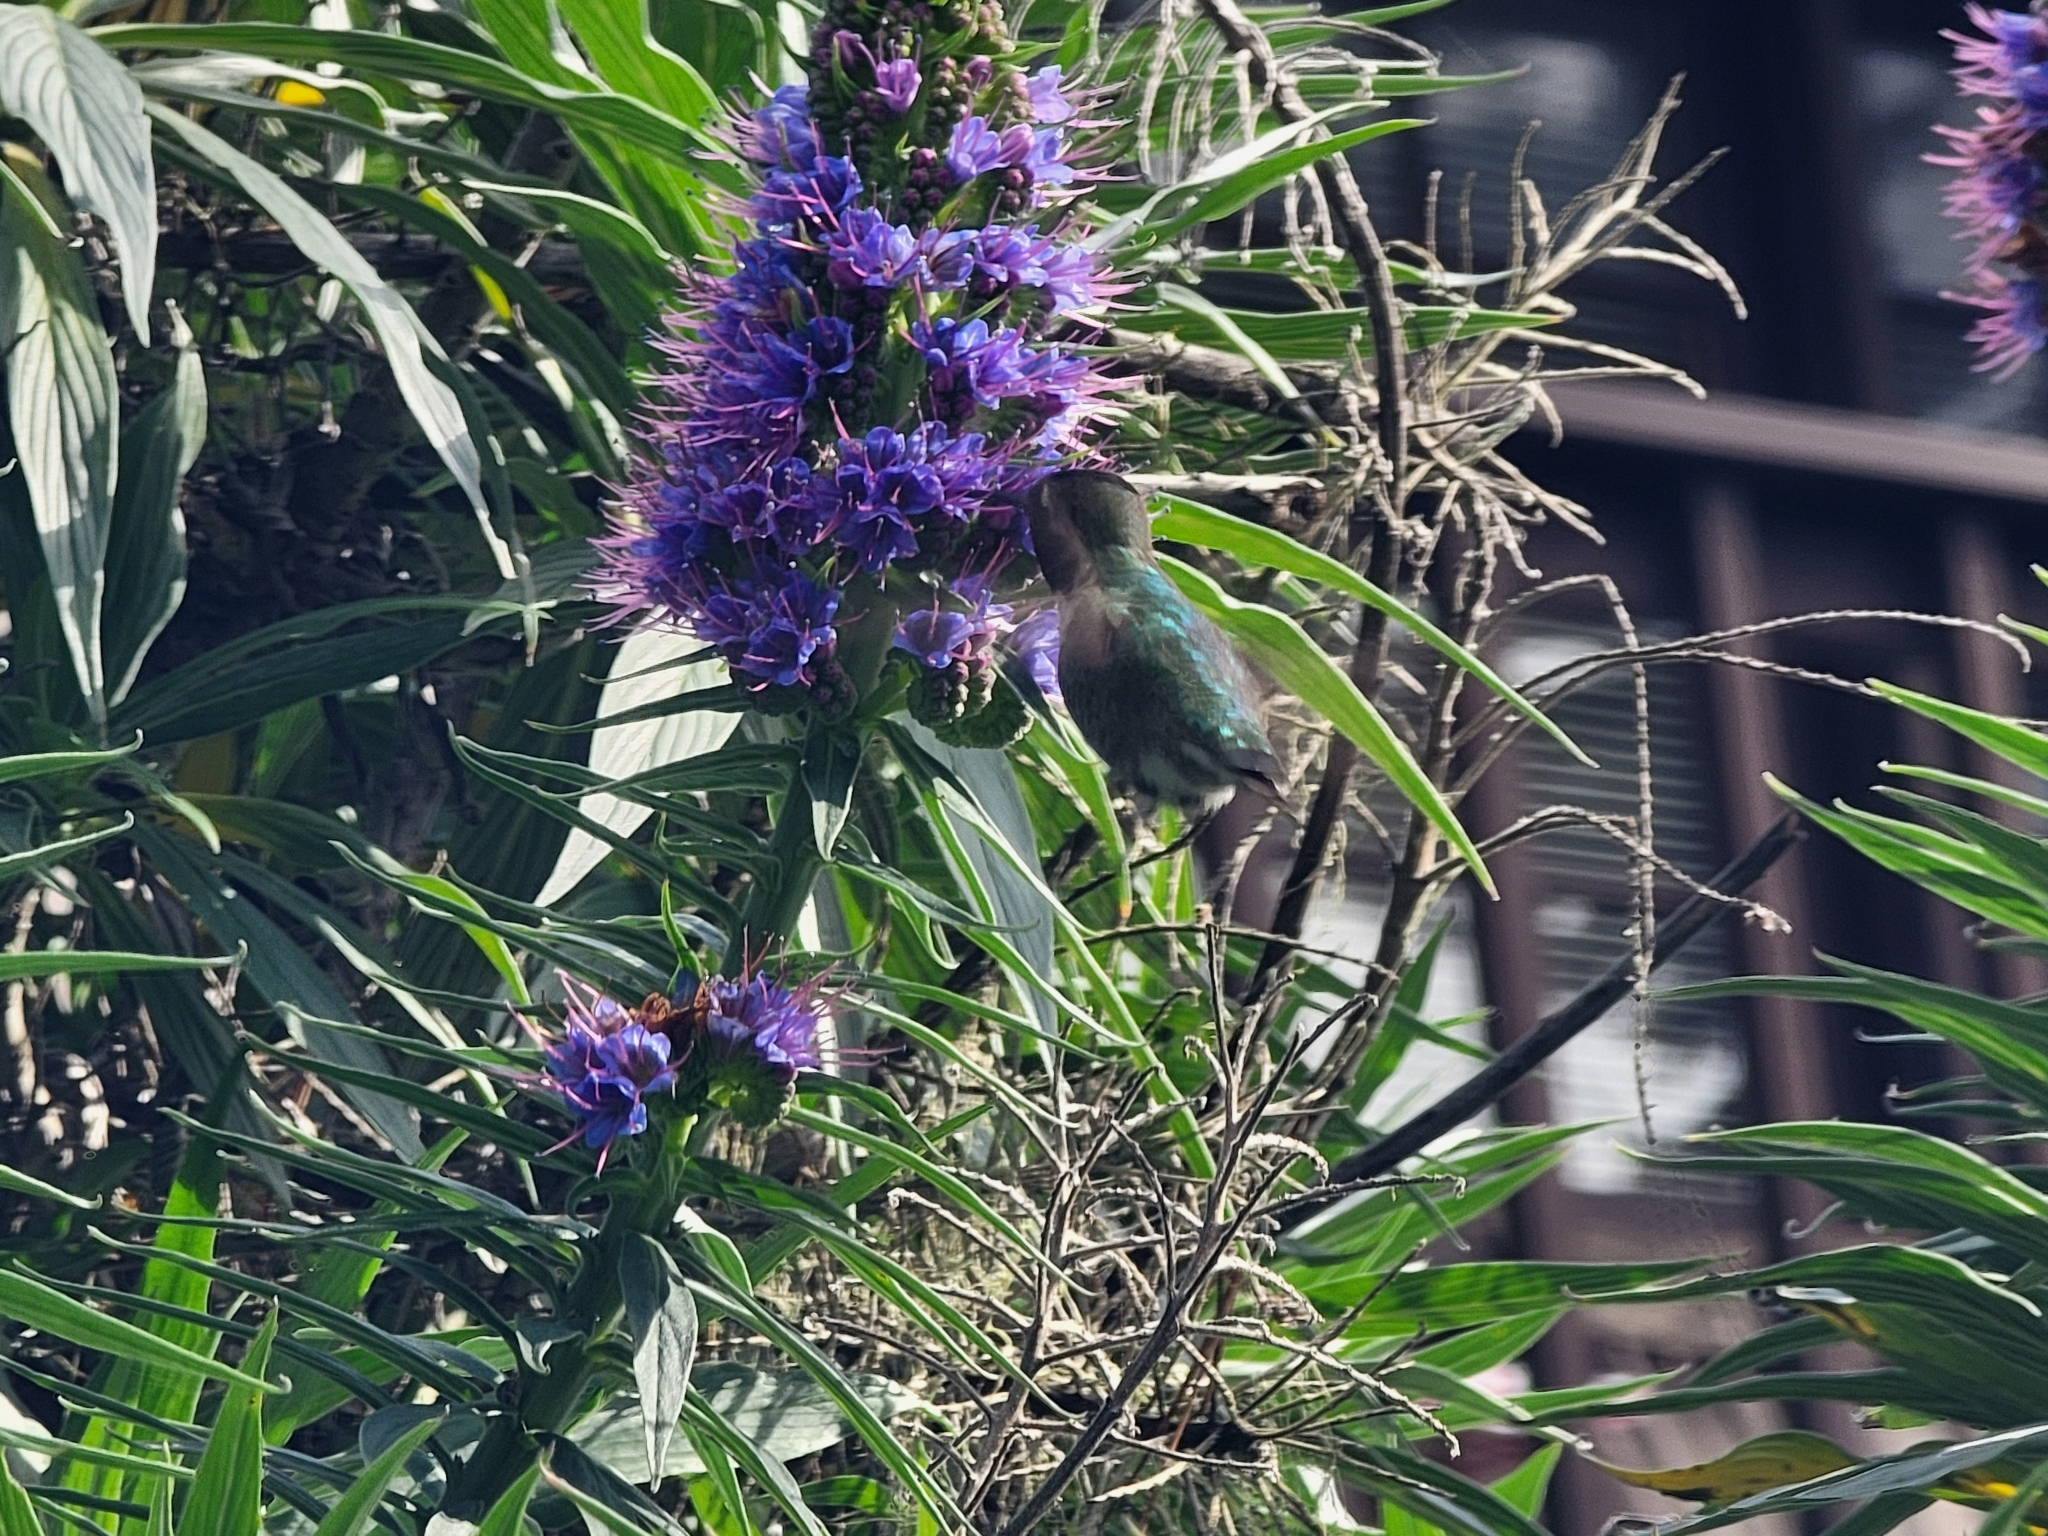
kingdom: Animalia
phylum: Chordata
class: Aves
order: Apodiformes
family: Trochilidae
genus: Calypte
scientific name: Calypte anna
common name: Anna's hummingbird
